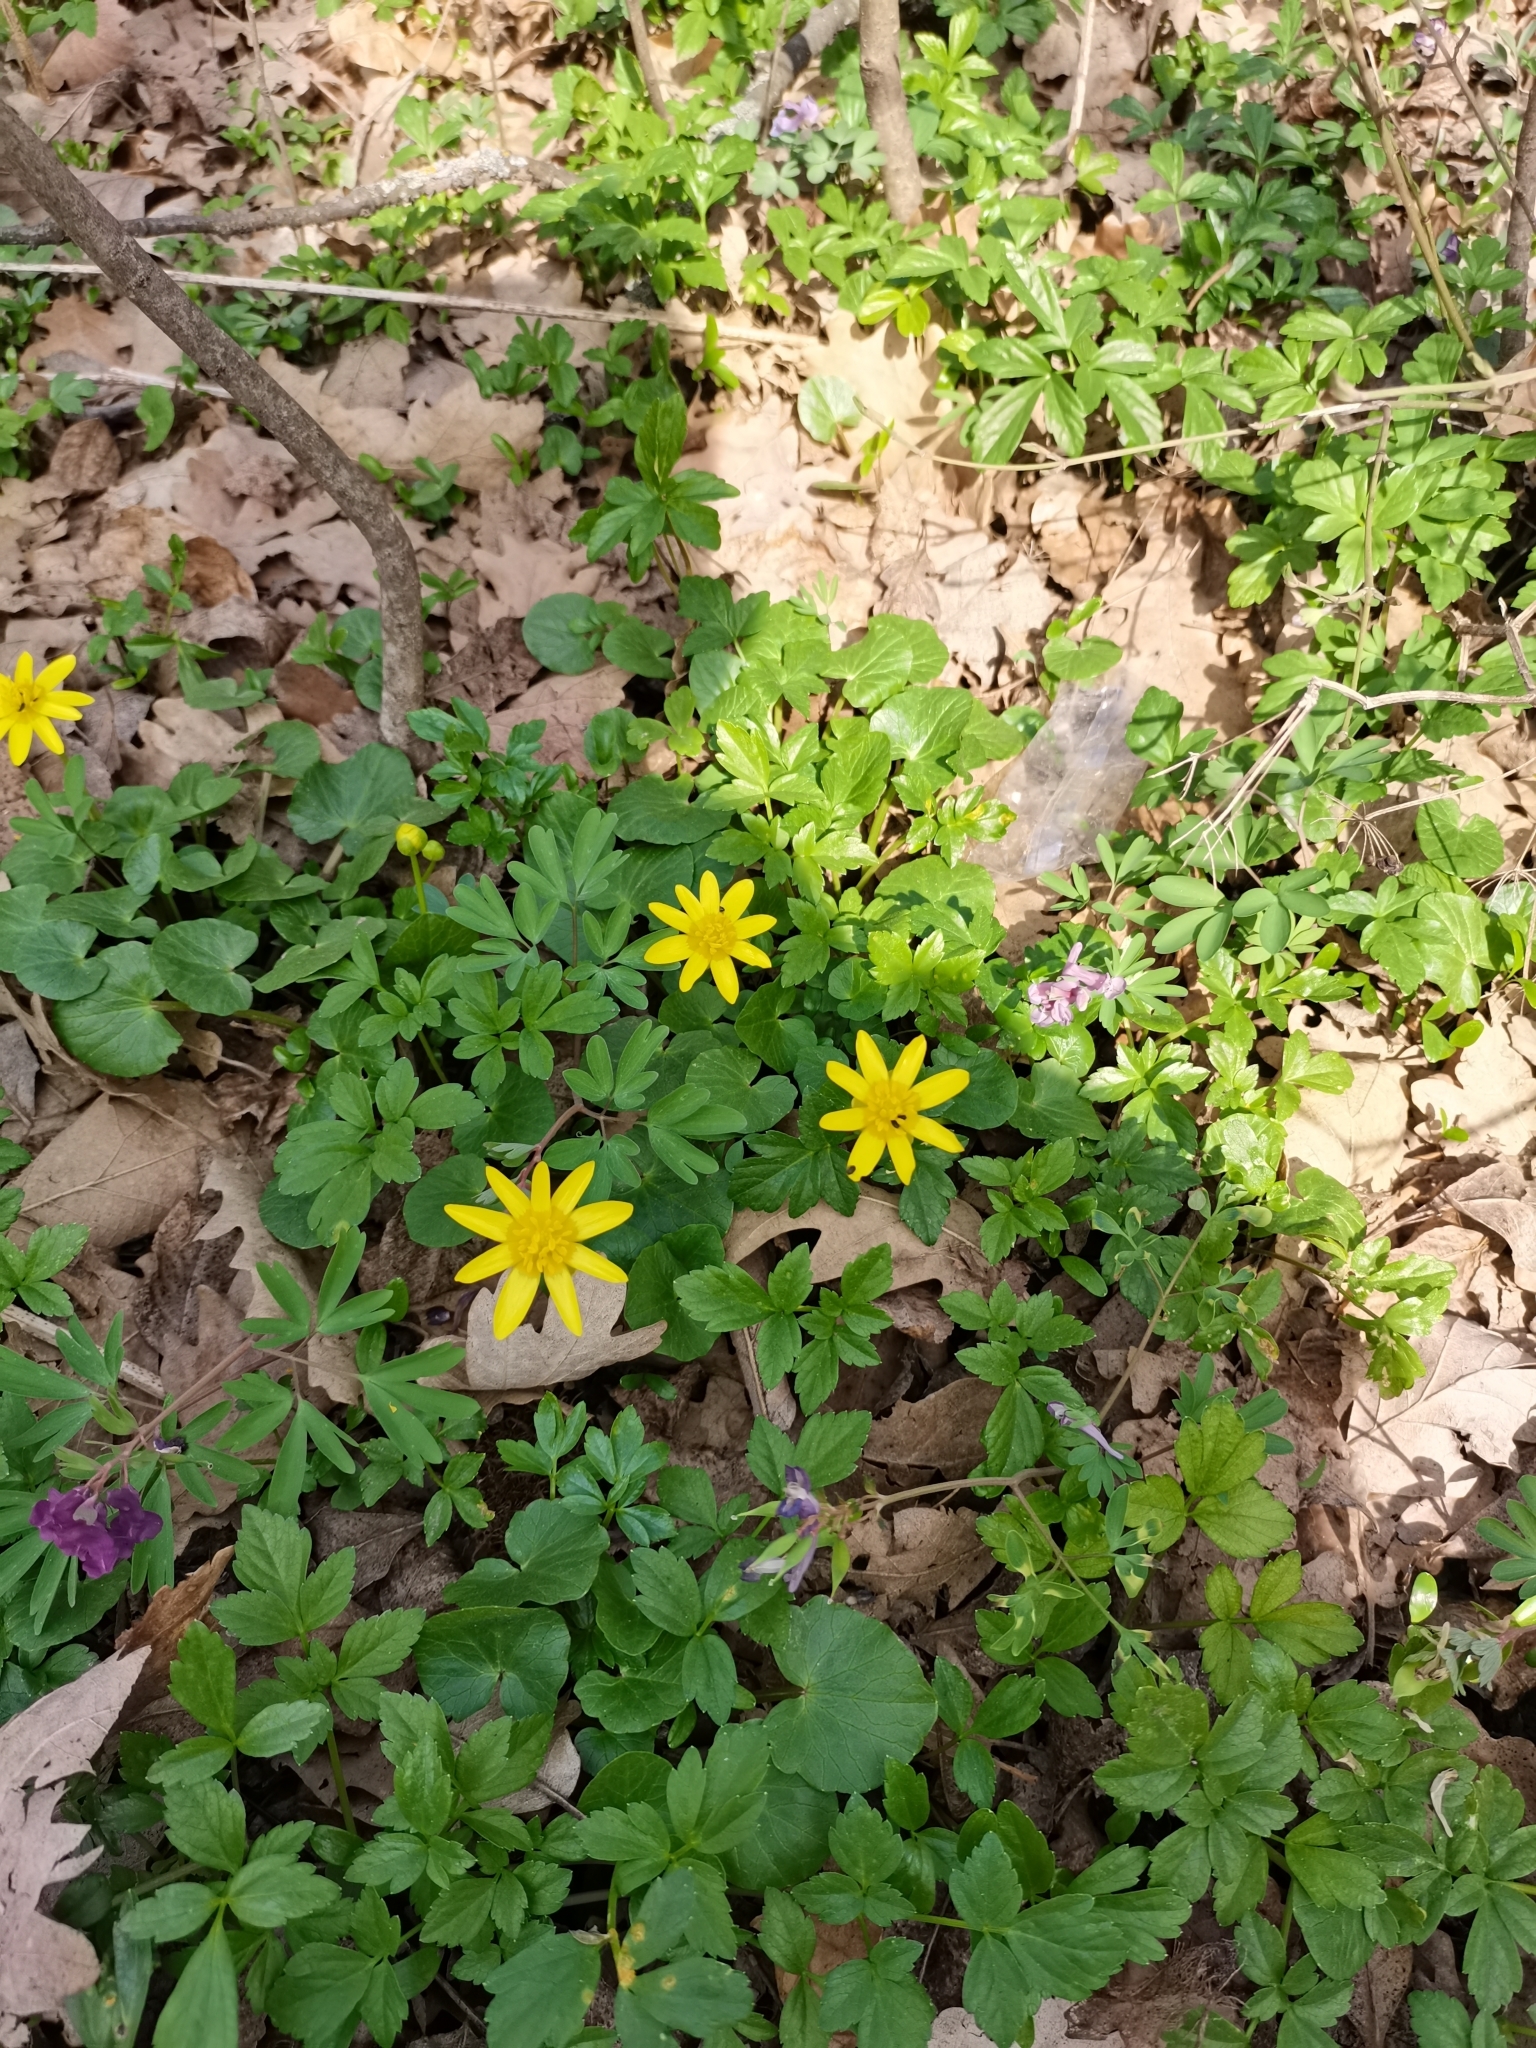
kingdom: Plantae
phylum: Tracheophyta
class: Magnoliopsida
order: Ranunculales
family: Ranunculaceae
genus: Ficaria
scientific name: Ficaria verna
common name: Lesser celandine
